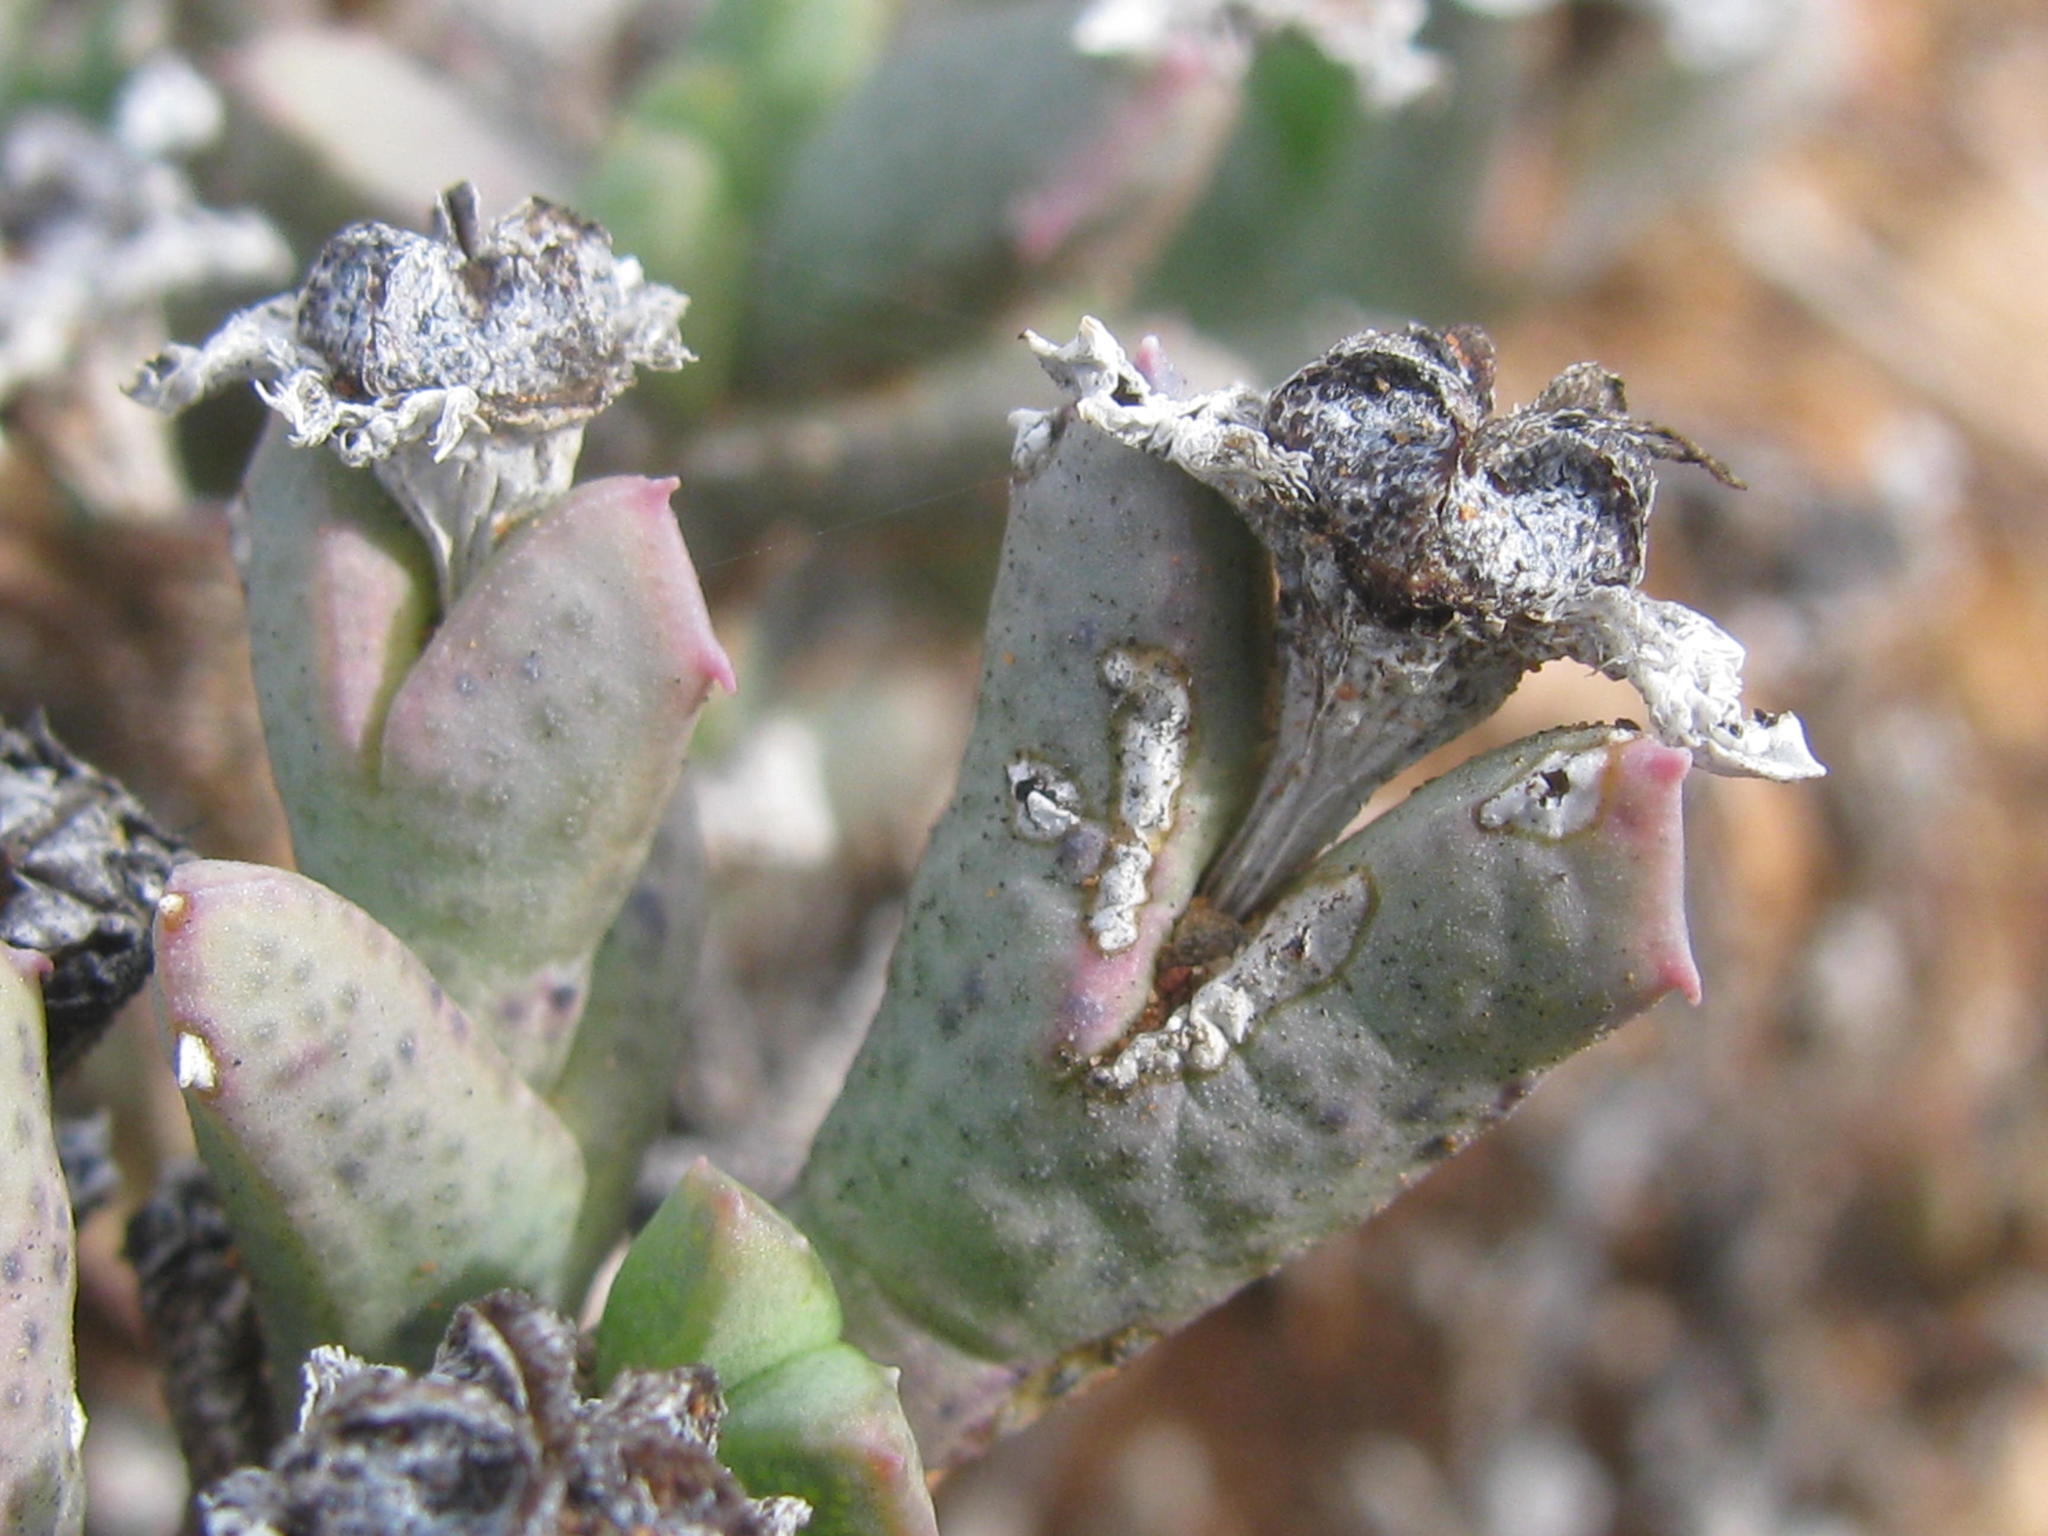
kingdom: Plantae
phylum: Tracheophyta
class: Magnoliopsida
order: Caryophyllales
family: Aizoaceae
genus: Ruschia
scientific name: Ruschia laxipetala
